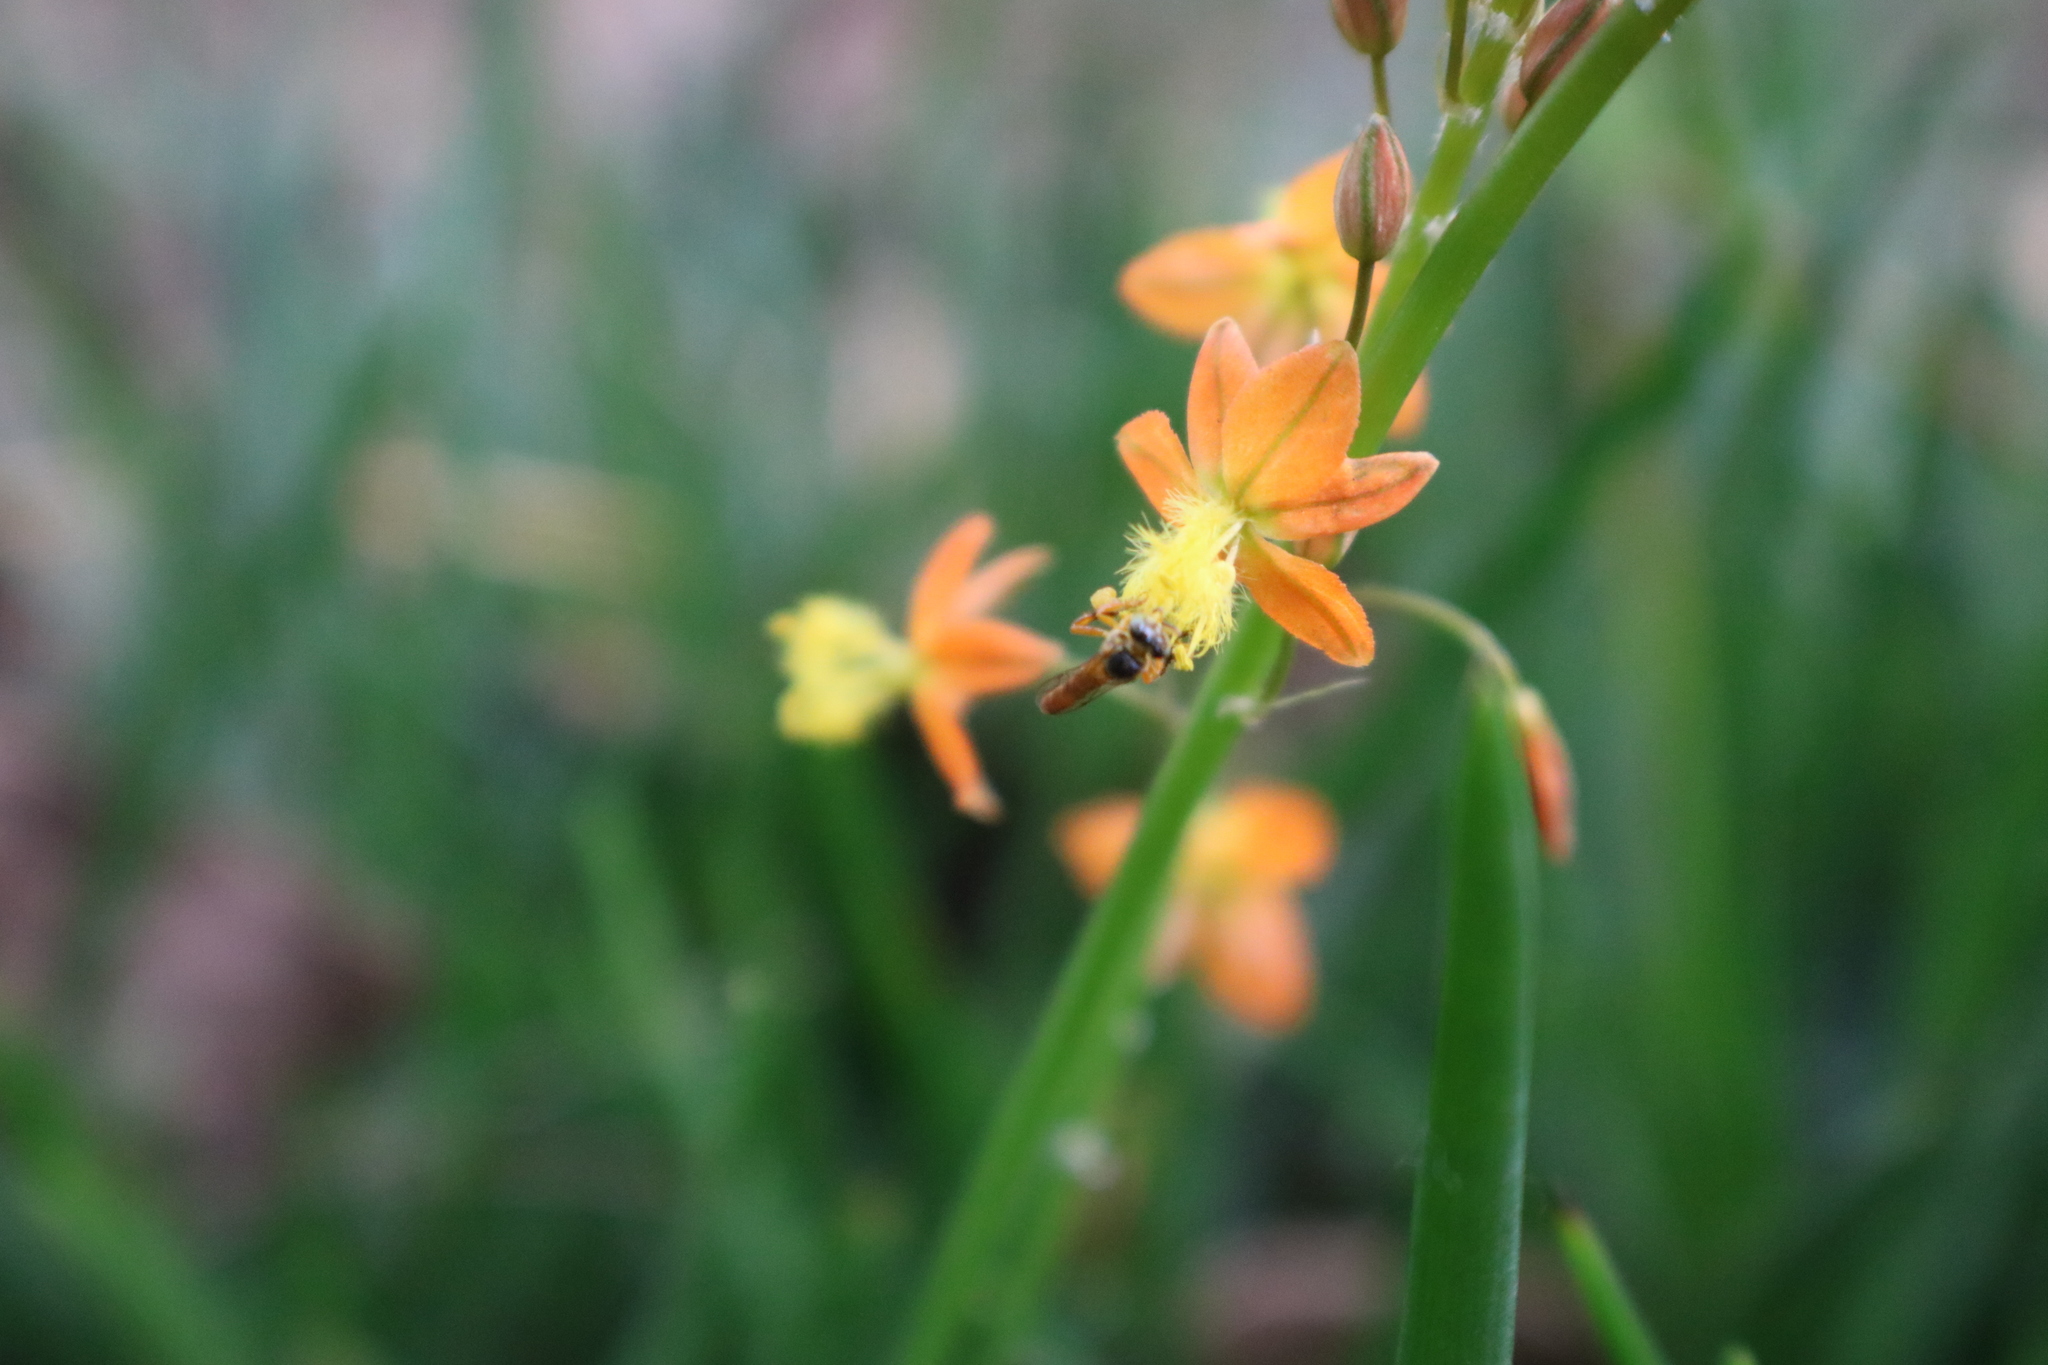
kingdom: Animalia
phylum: Arthropoda
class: Insecta
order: Hymenoptera
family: Apidae
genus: Tetragonisca
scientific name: Tetragonisca angustula
